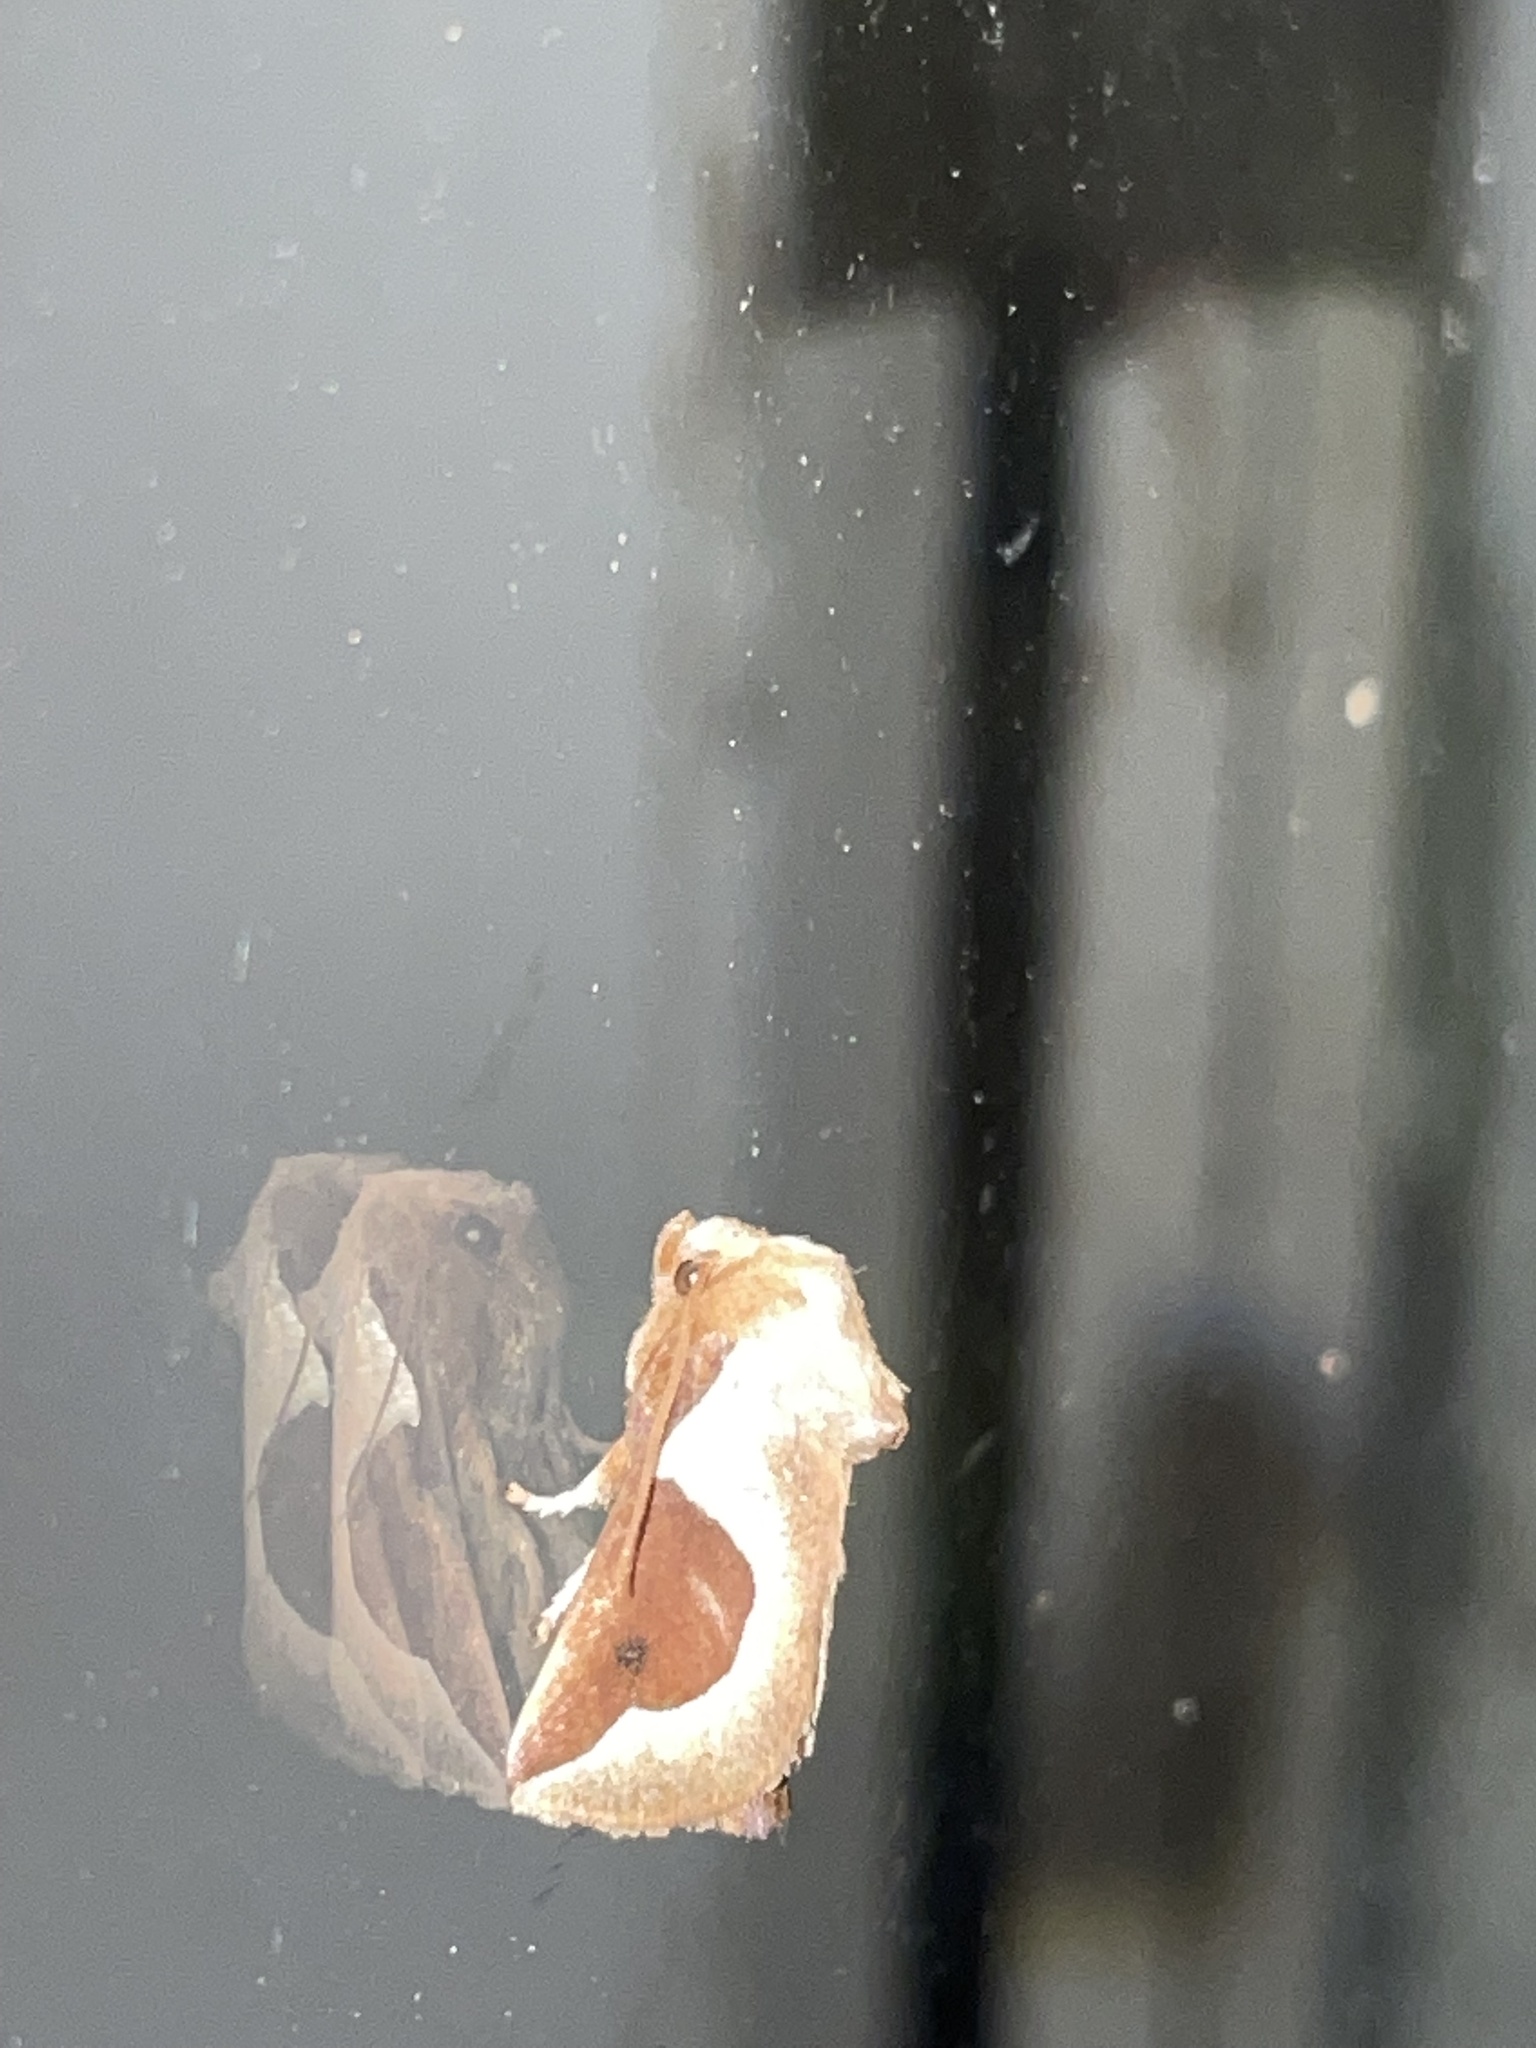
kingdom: Animalia
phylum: Arthropoda
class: Insecta
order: Lepidoptera
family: Limacodidae
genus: Prolimacodes
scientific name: Prolimacodes badia
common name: Skiff moth
